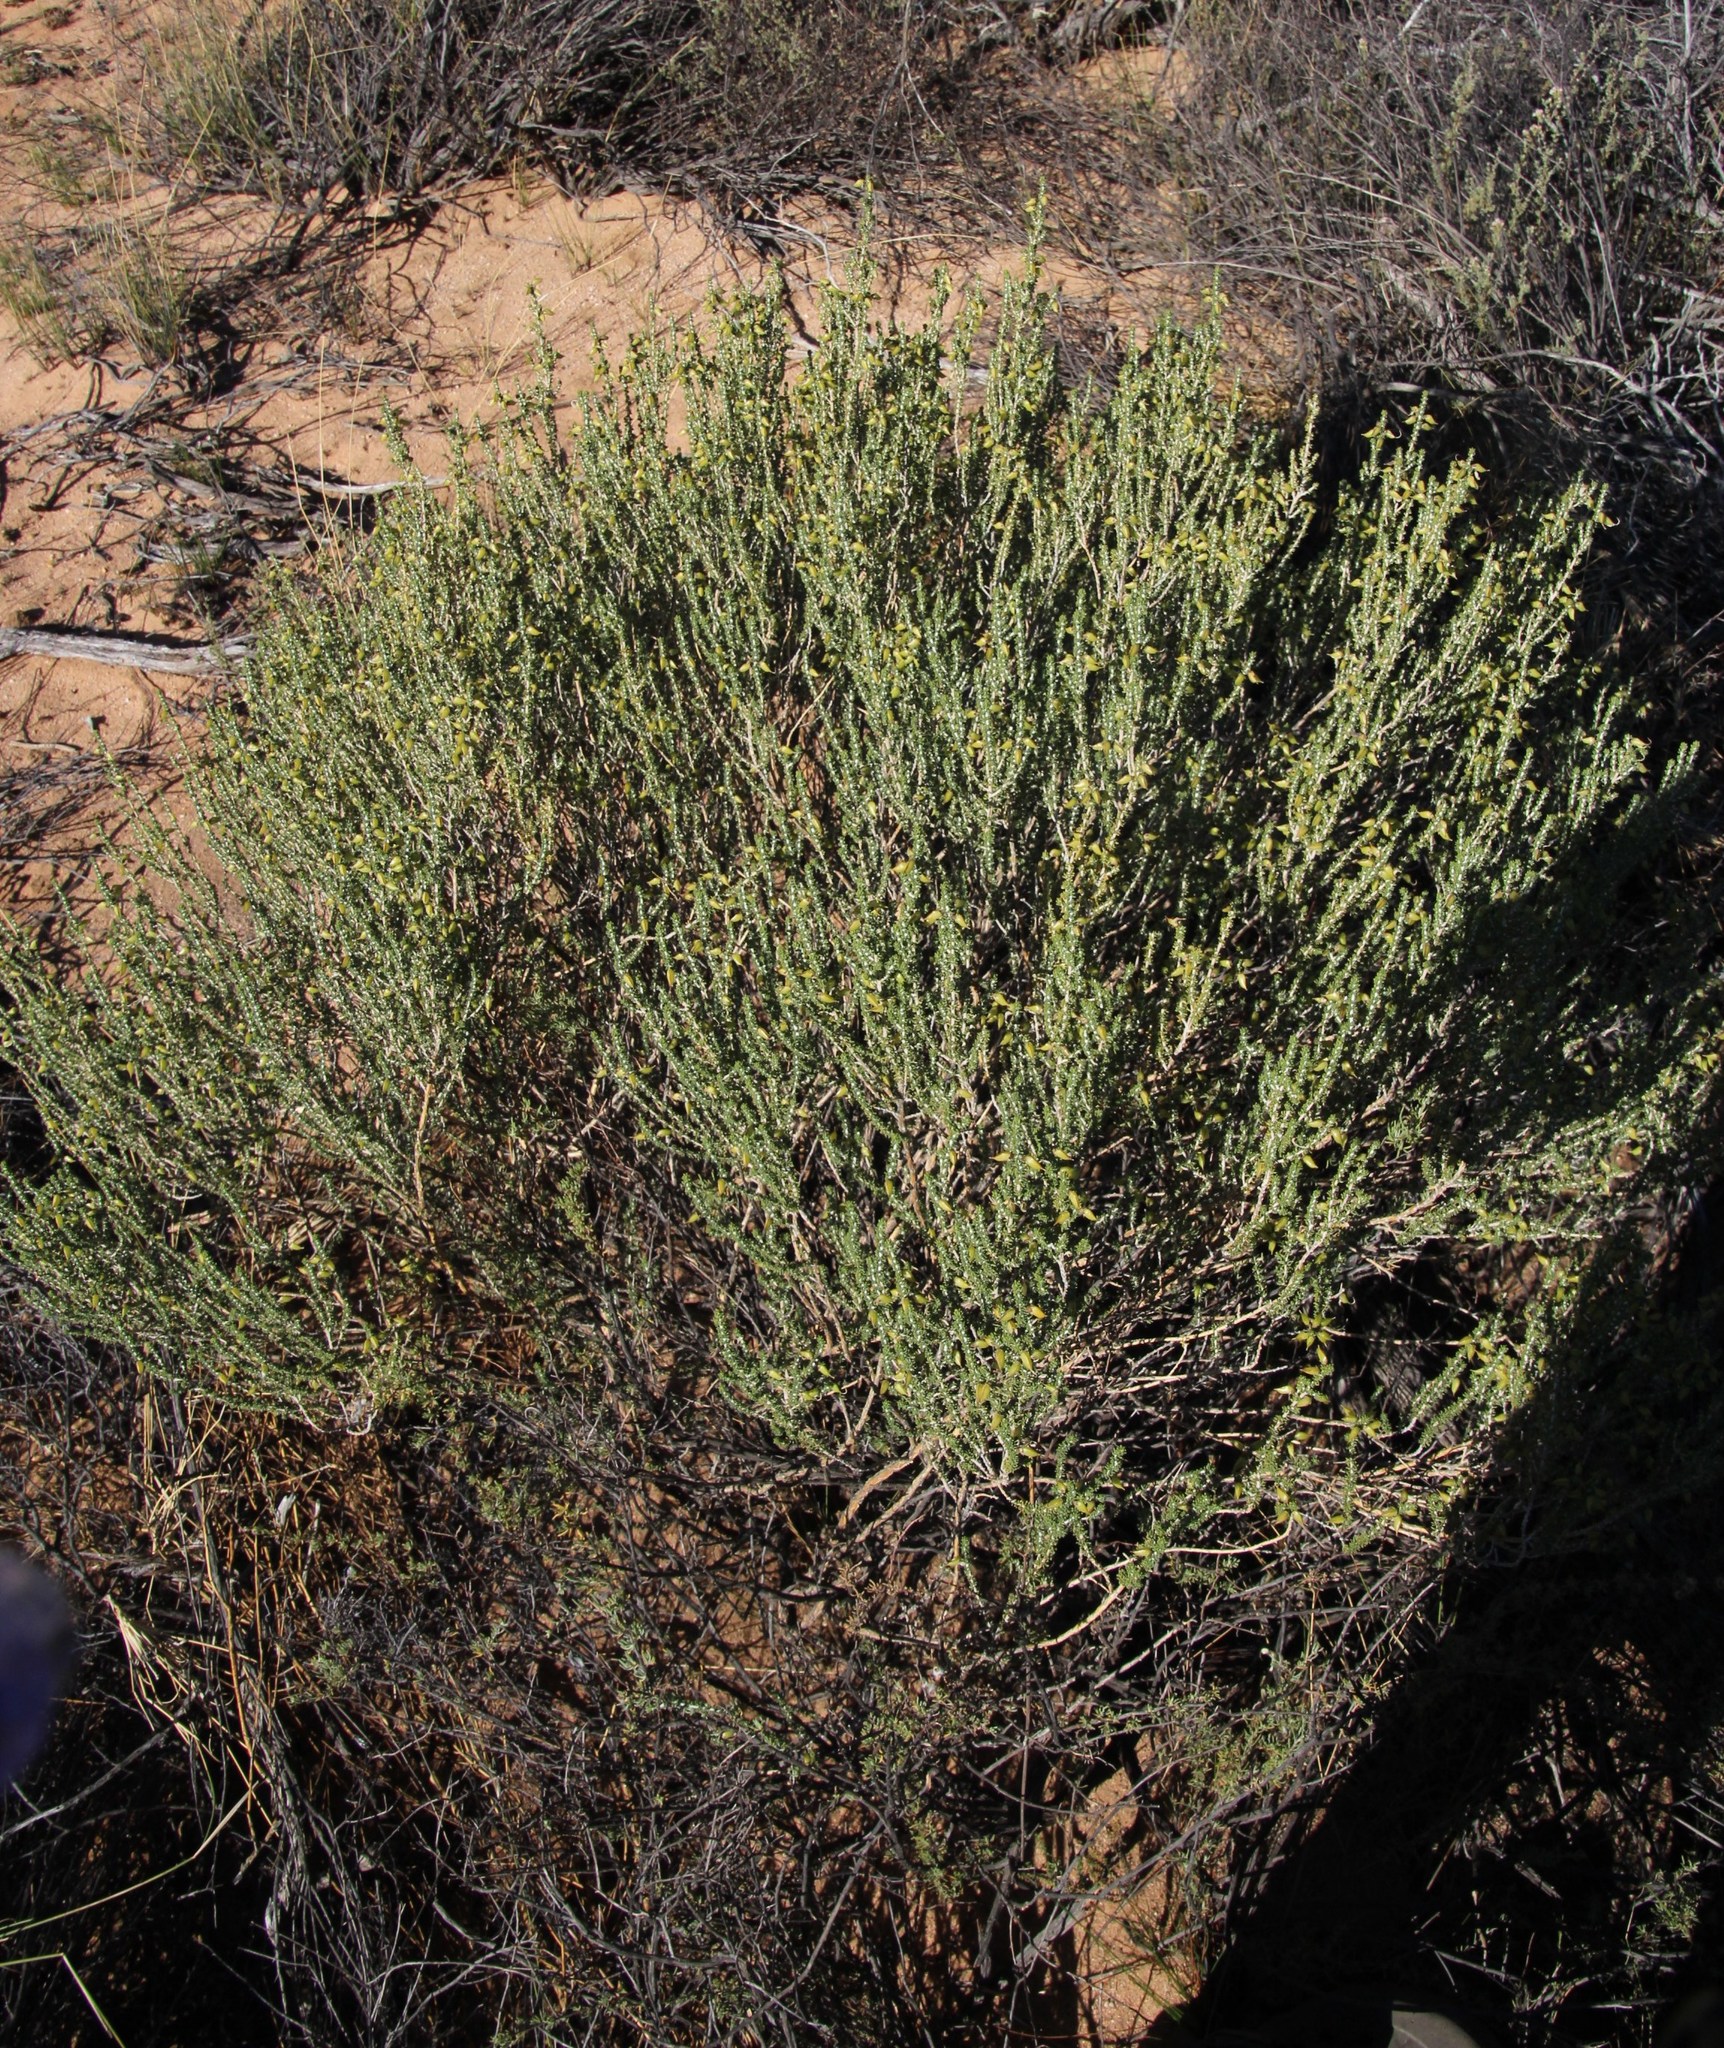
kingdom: Plantae
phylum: Tracheophyta
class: Magnoliopsida
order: Fabales
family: Fabaceae
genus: Aspalathus
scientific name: Aspalathus costulata
